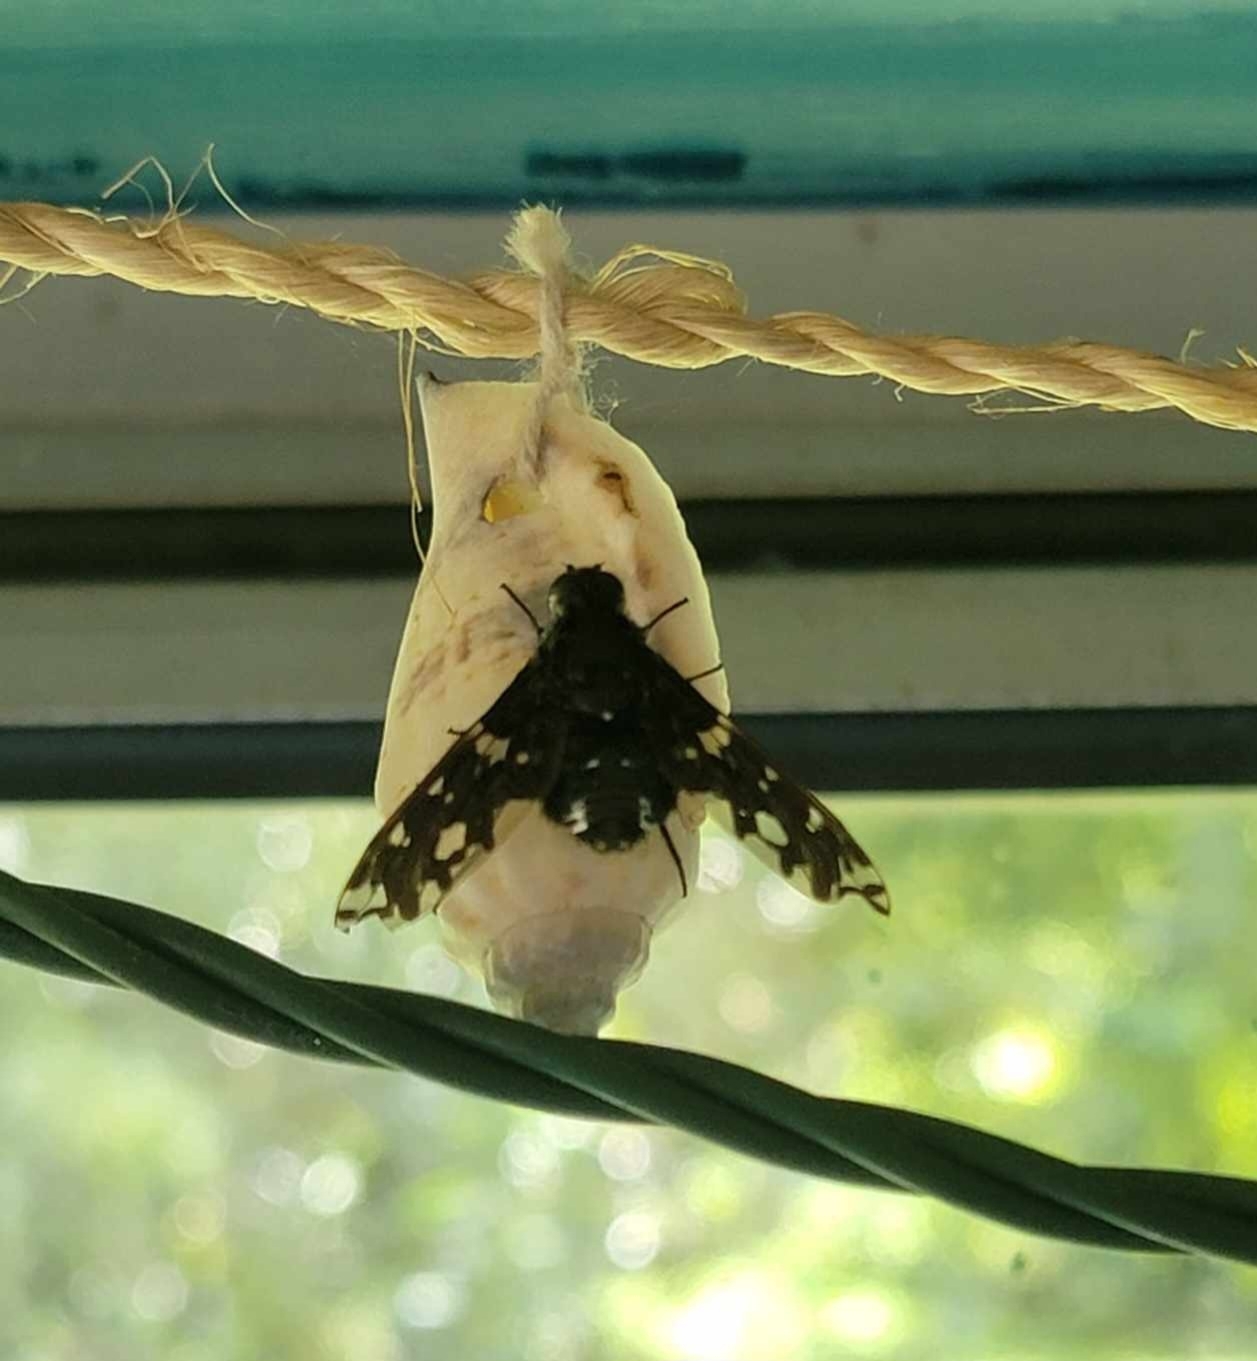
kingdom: Animalia
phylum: Arthropoda
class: Insecta
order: Diptera
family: Bombyliidae
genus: Xenox
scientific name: Xenox tigrinus
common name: Tiger bee fly
